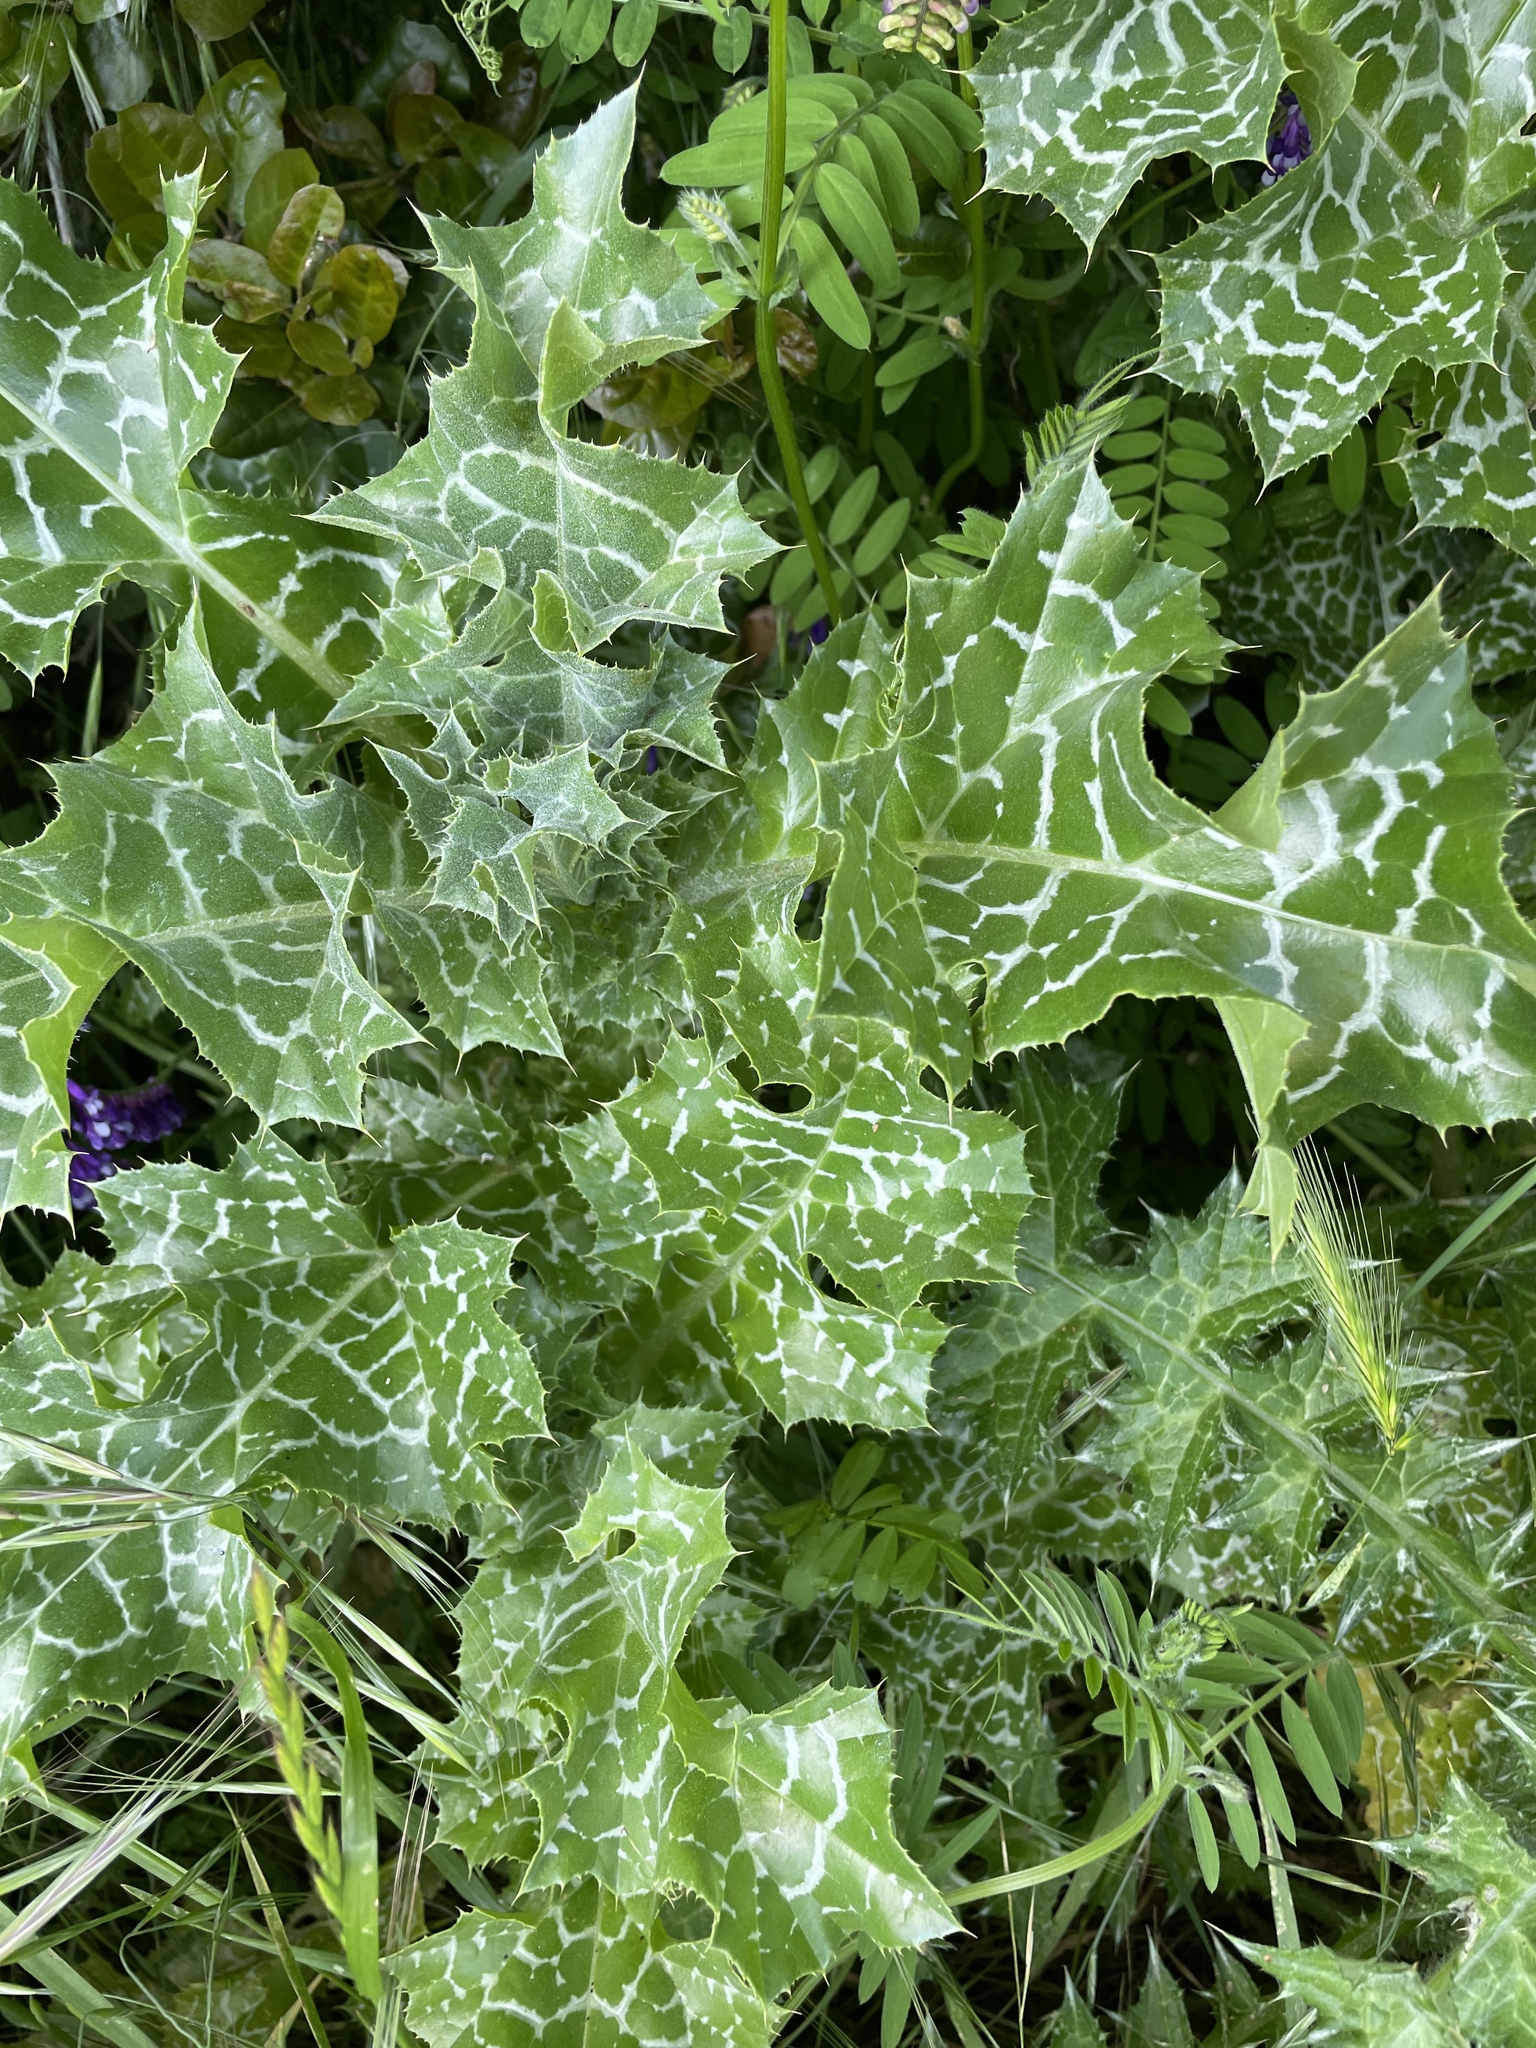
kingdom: Plantae
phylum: Tracheophyta
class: Magnoliopsida
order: Asterales
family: Asteraceae
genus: Silybum
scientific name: Silybum marianum
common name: Milk thistle
